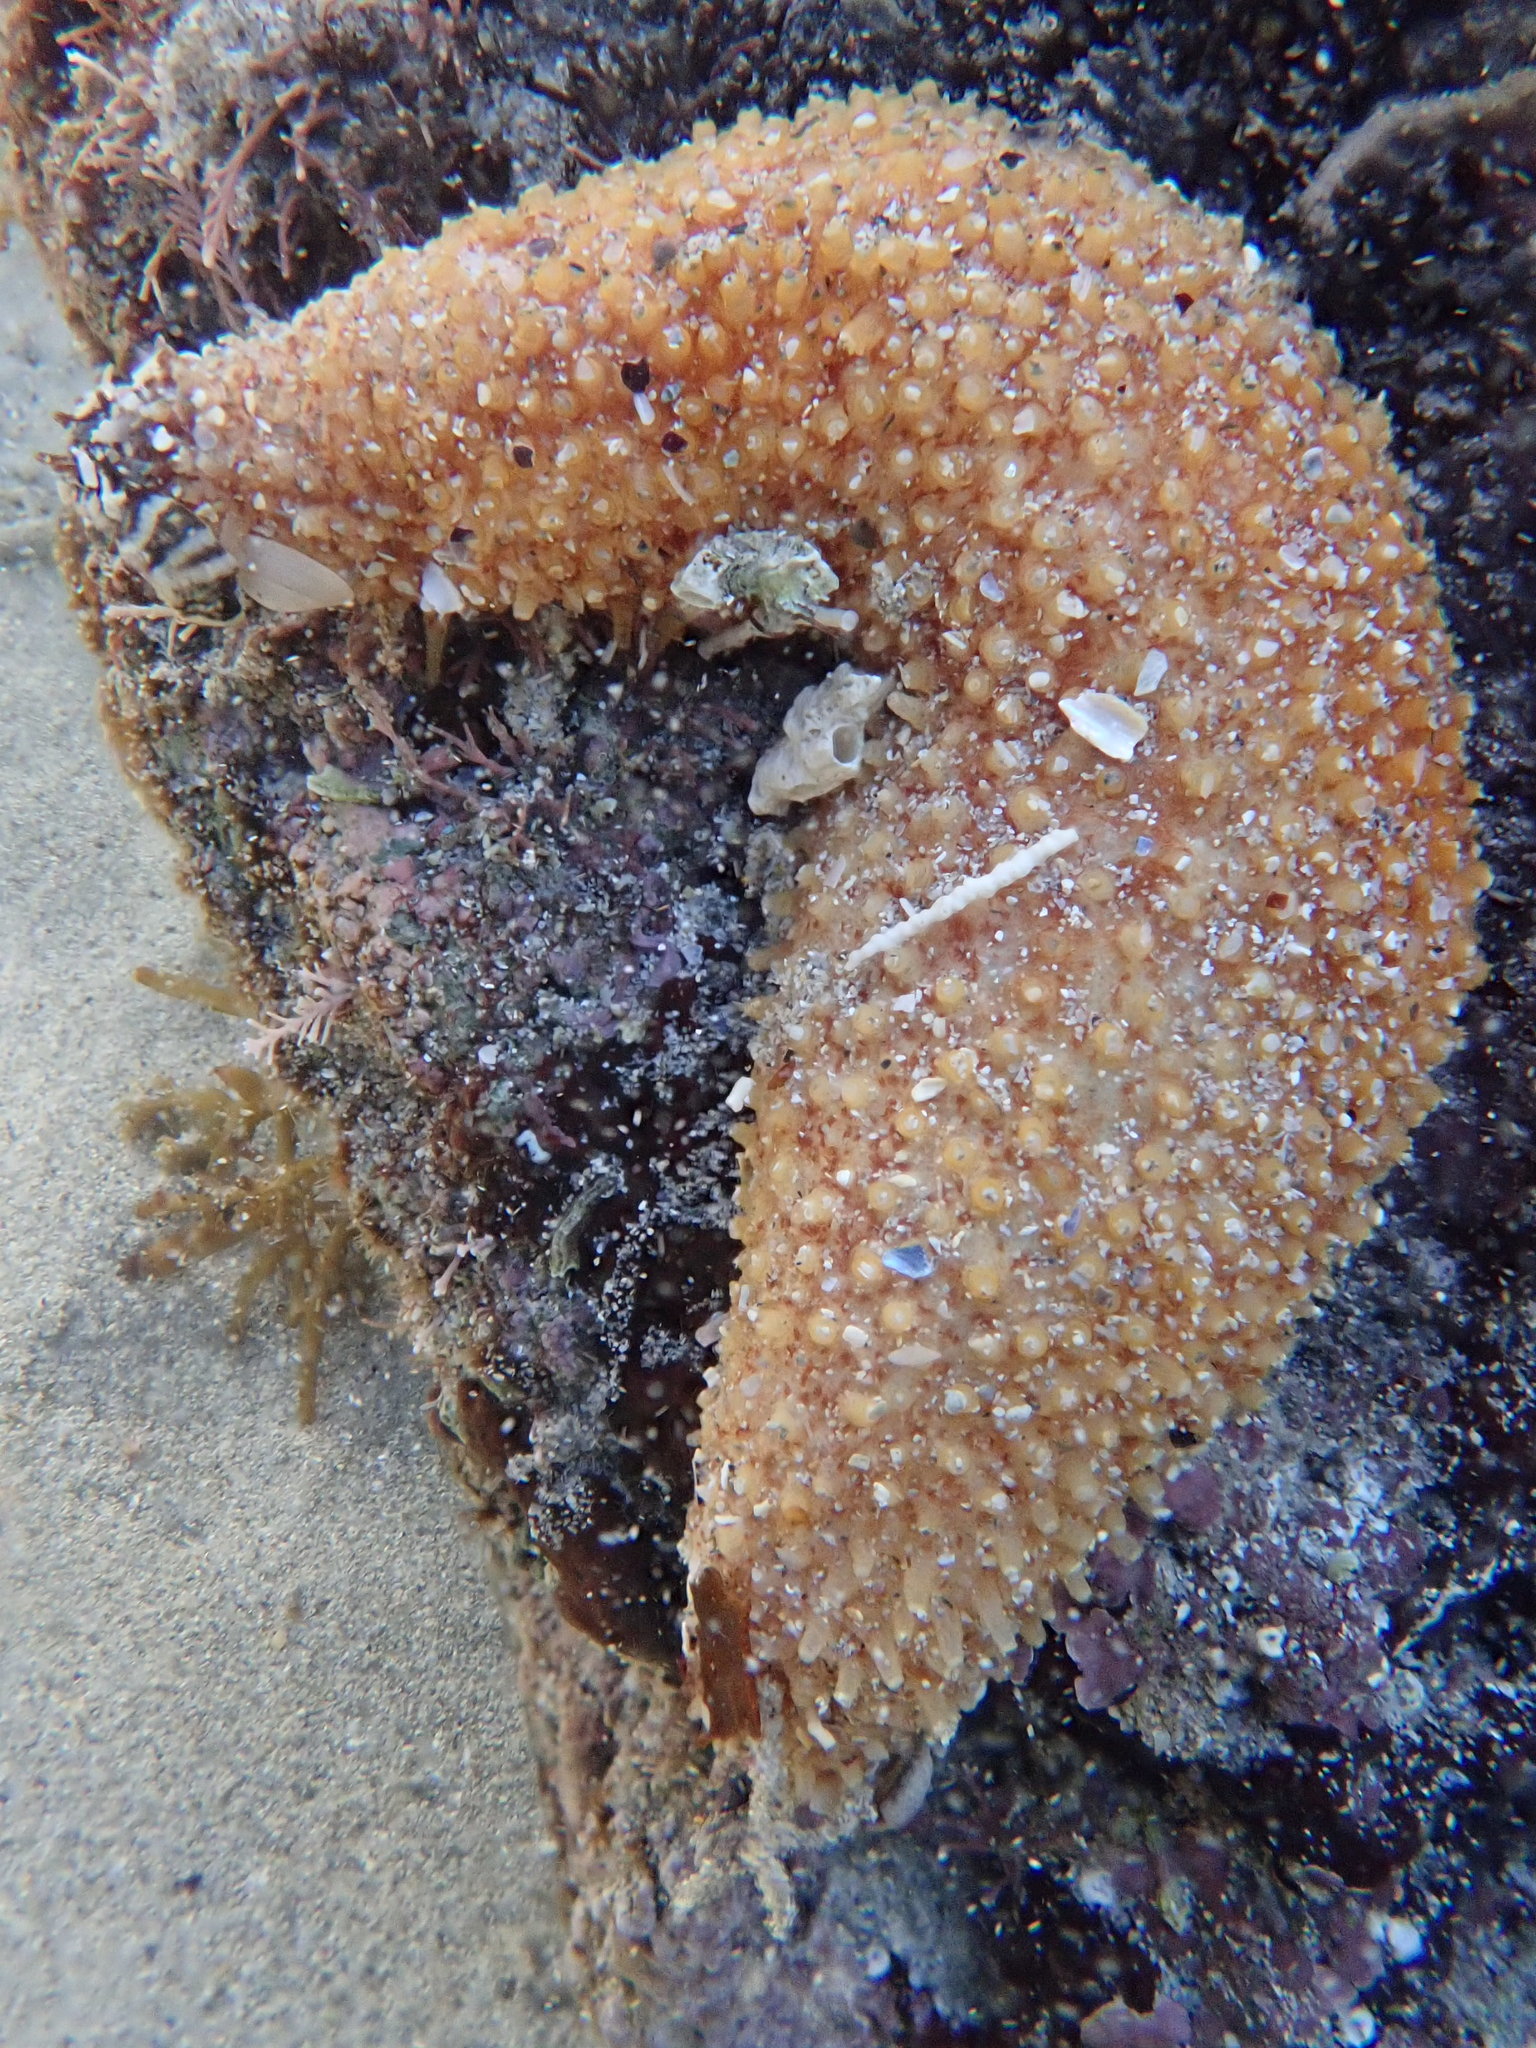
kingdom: Animalia
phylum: Echinodermata
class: Holothuroidea
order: Dendrochirotida
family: Phyllophoridae
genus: Lipotrapeza
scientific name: Lipotrapeza vestiens
